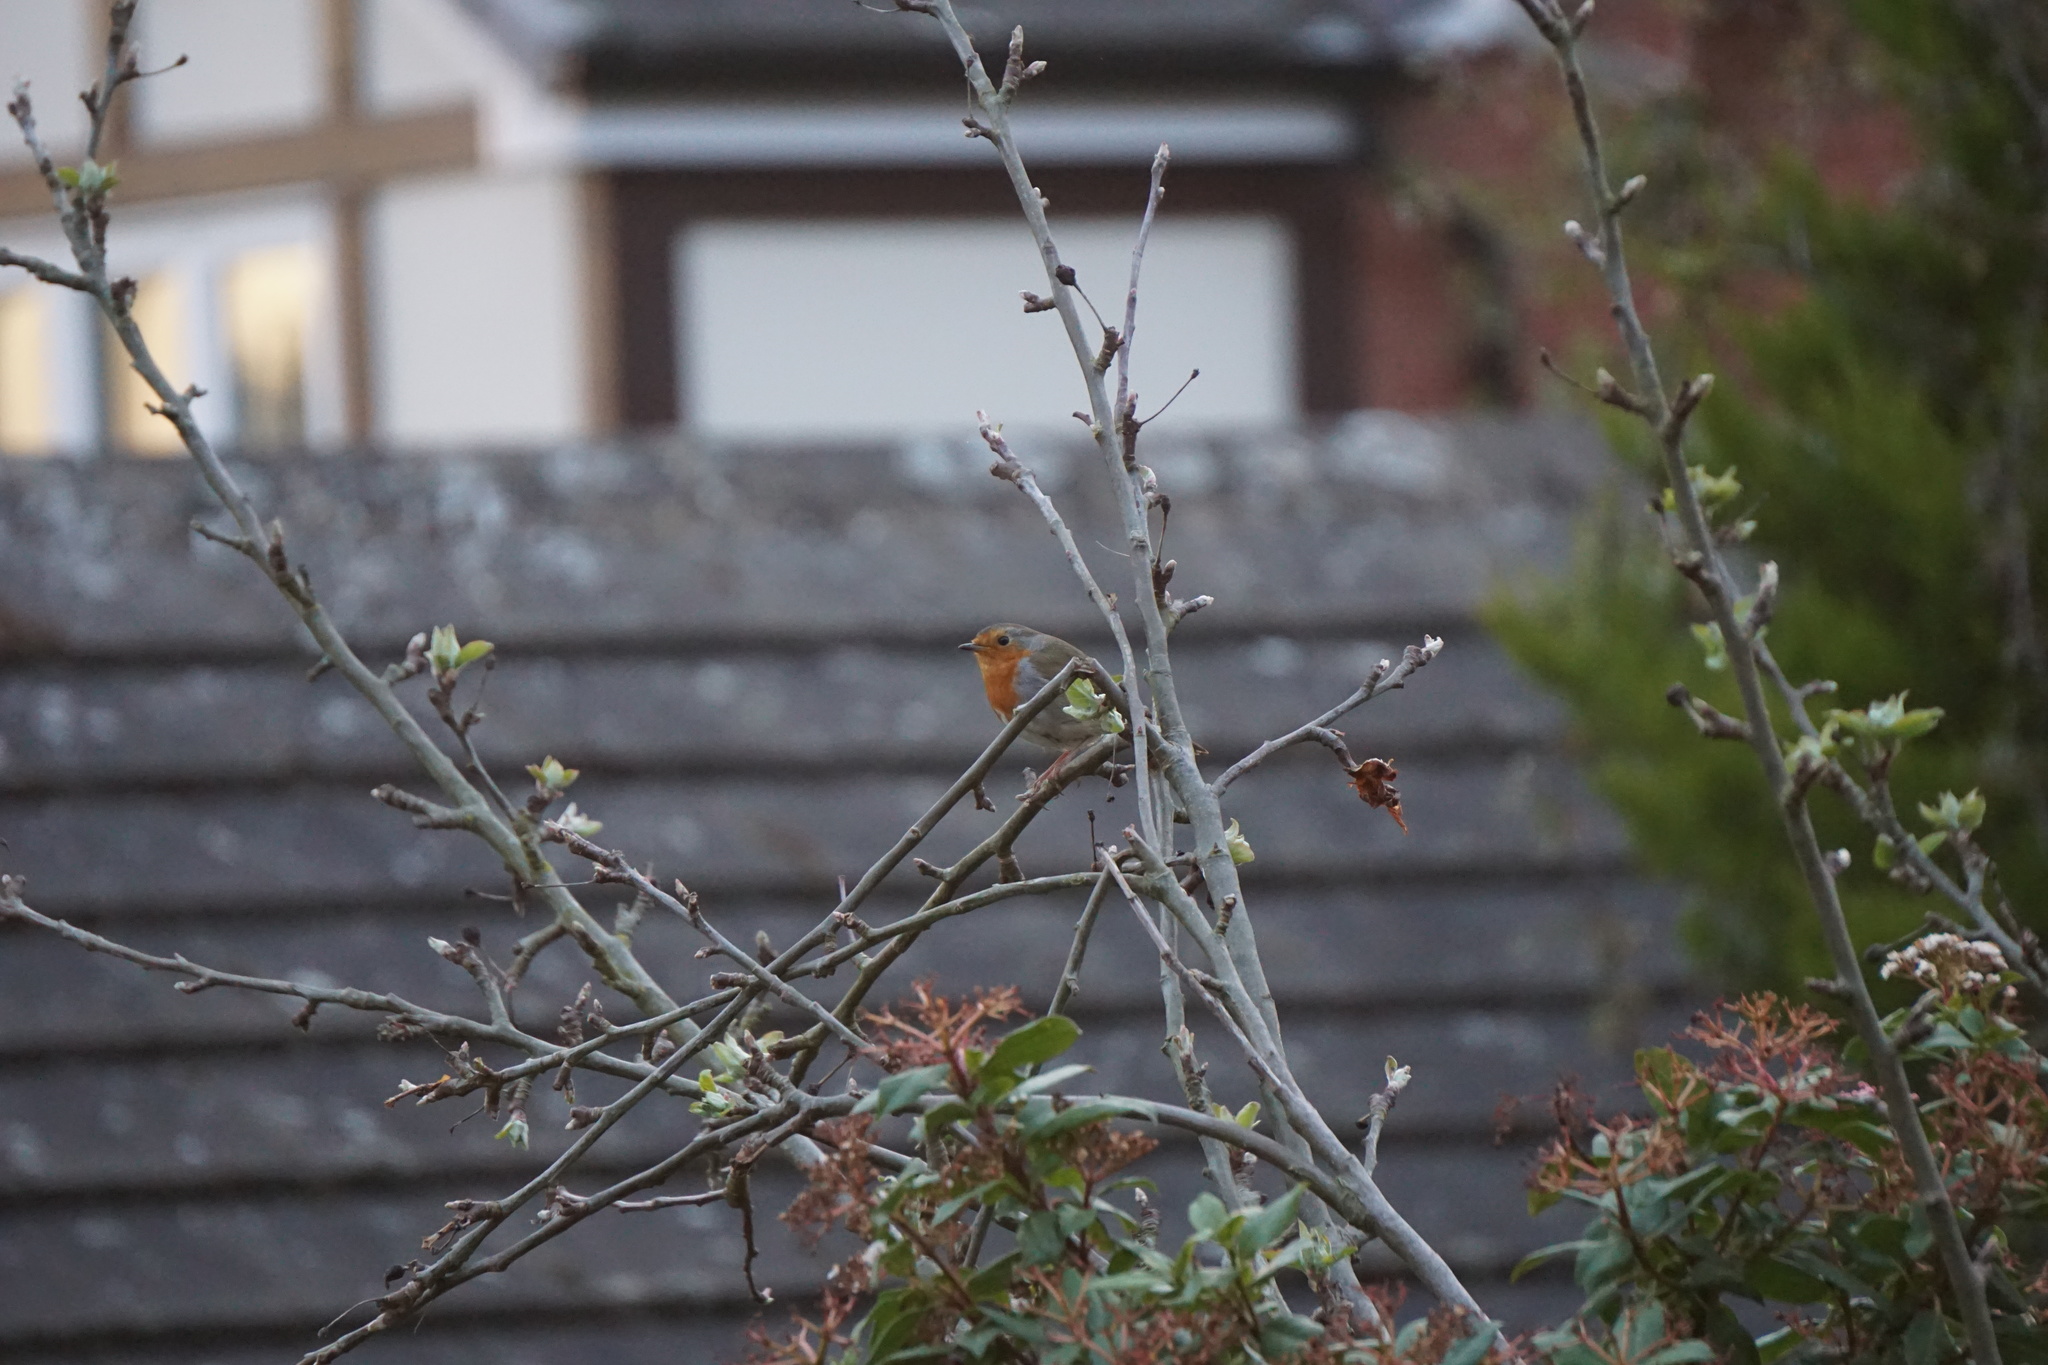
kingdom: Animalia
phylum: Chordata
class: Aves
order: Passeriformes
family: Muscicapidae
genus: Erithacus
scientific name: Erithacus rubecula
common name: European robin
